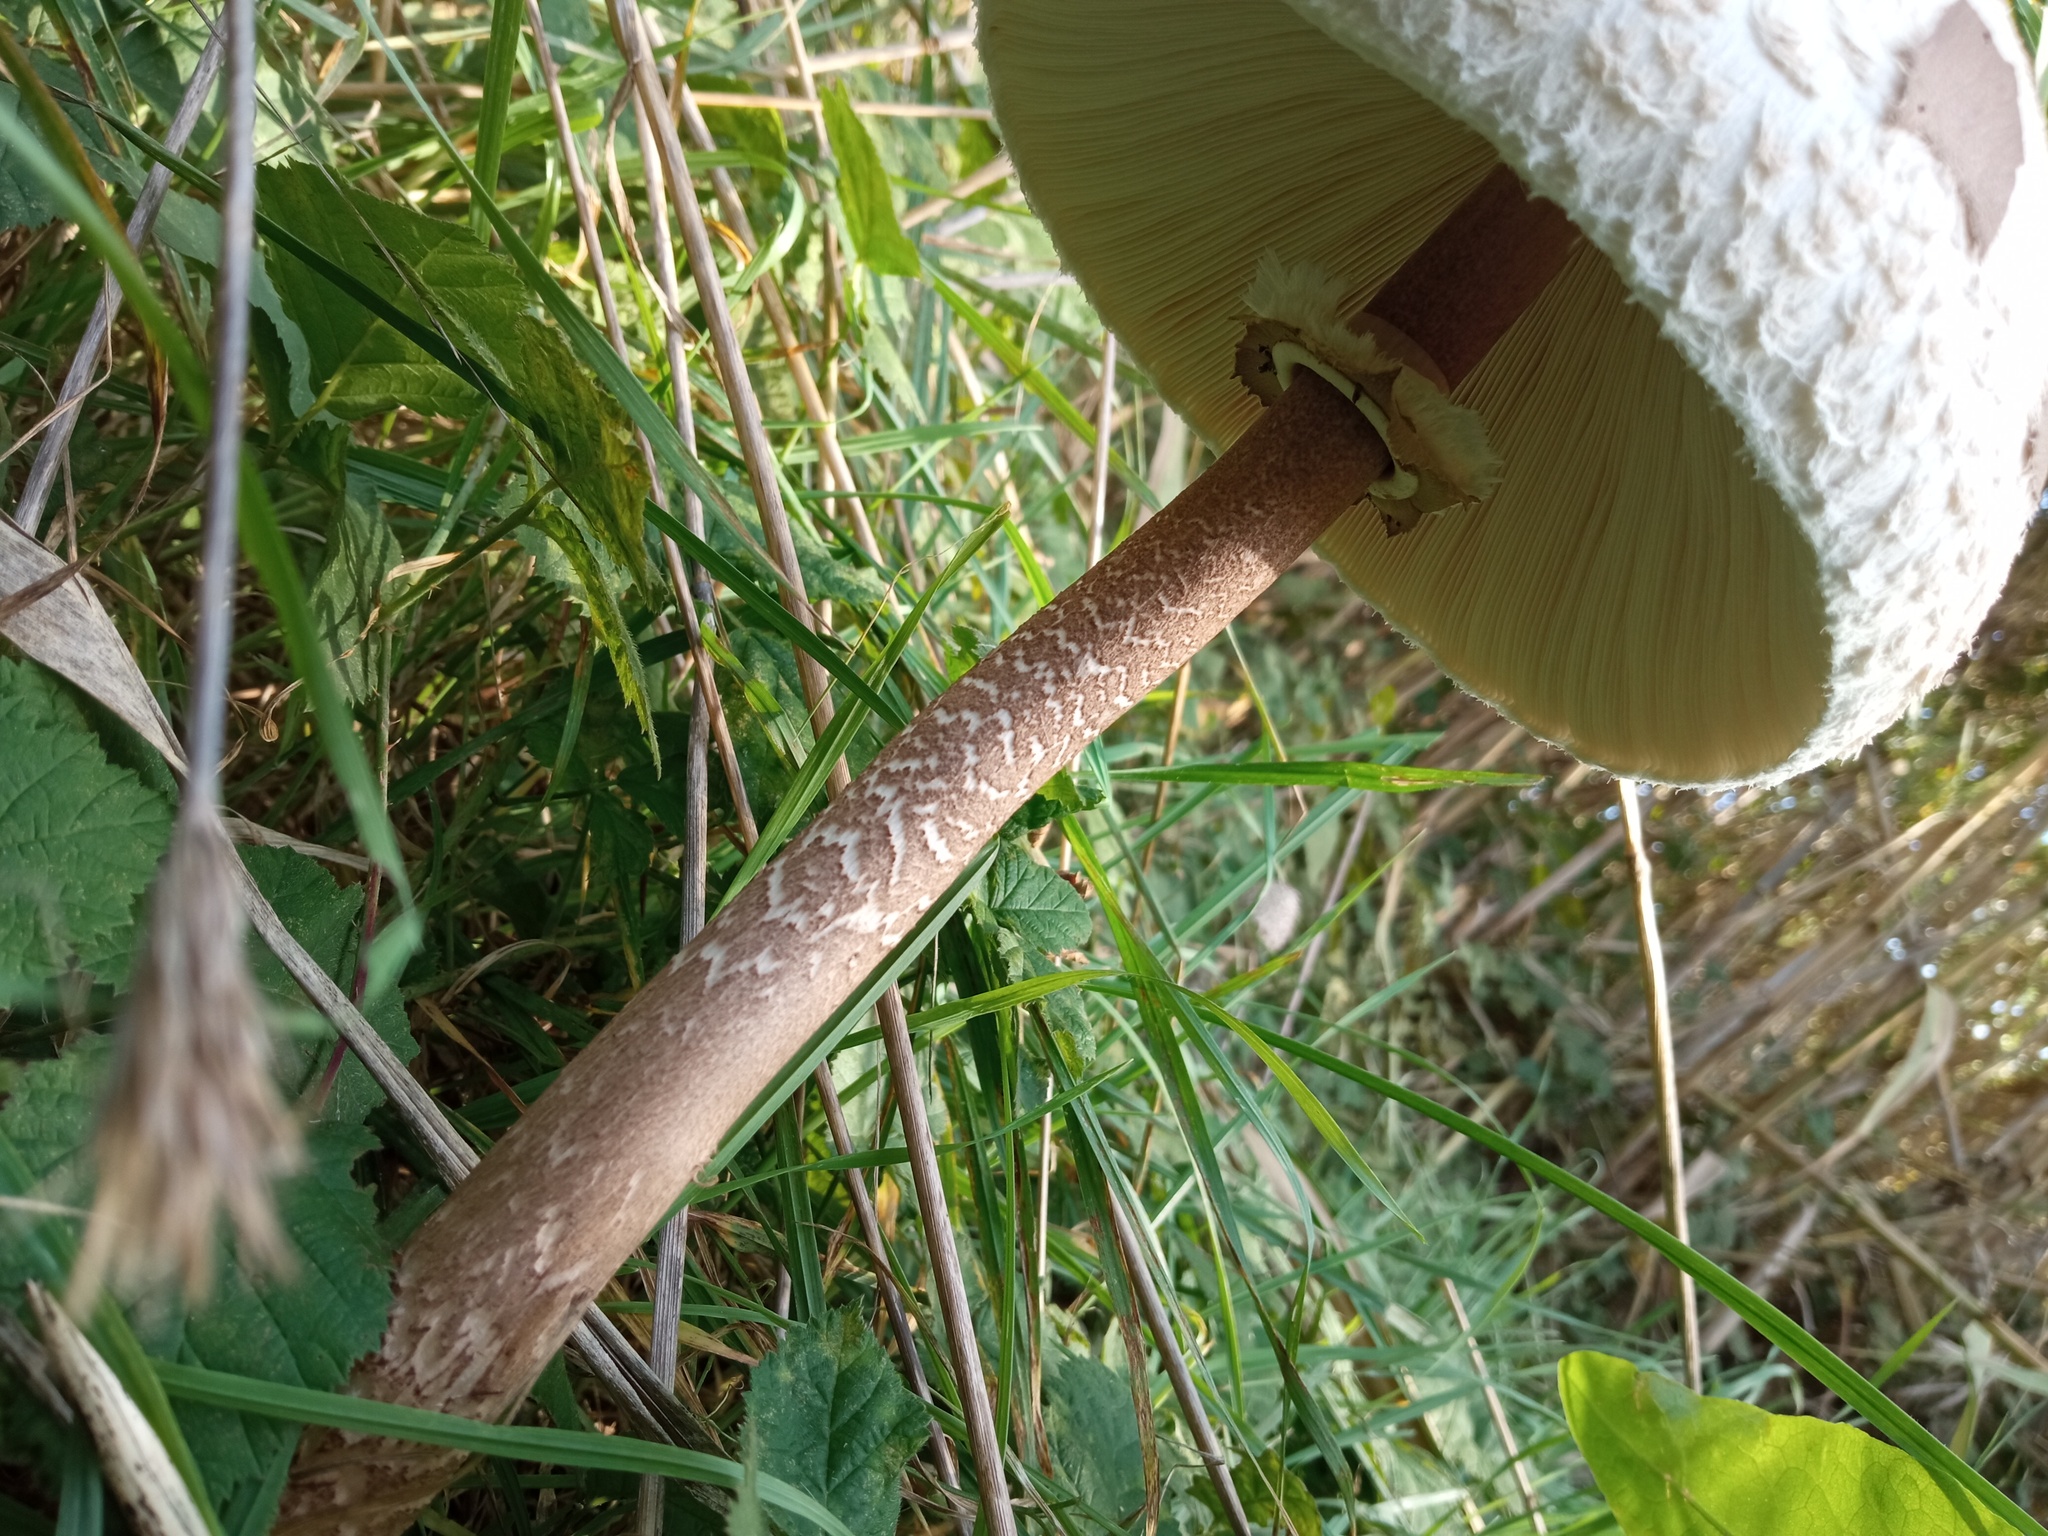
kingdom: Fungi
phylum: Basidiomycota
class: Agaricomycetes
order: Agaricales
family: Agaricaceae
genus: Macrolepiota
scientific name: Macrolepiota procera
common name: Parasol
